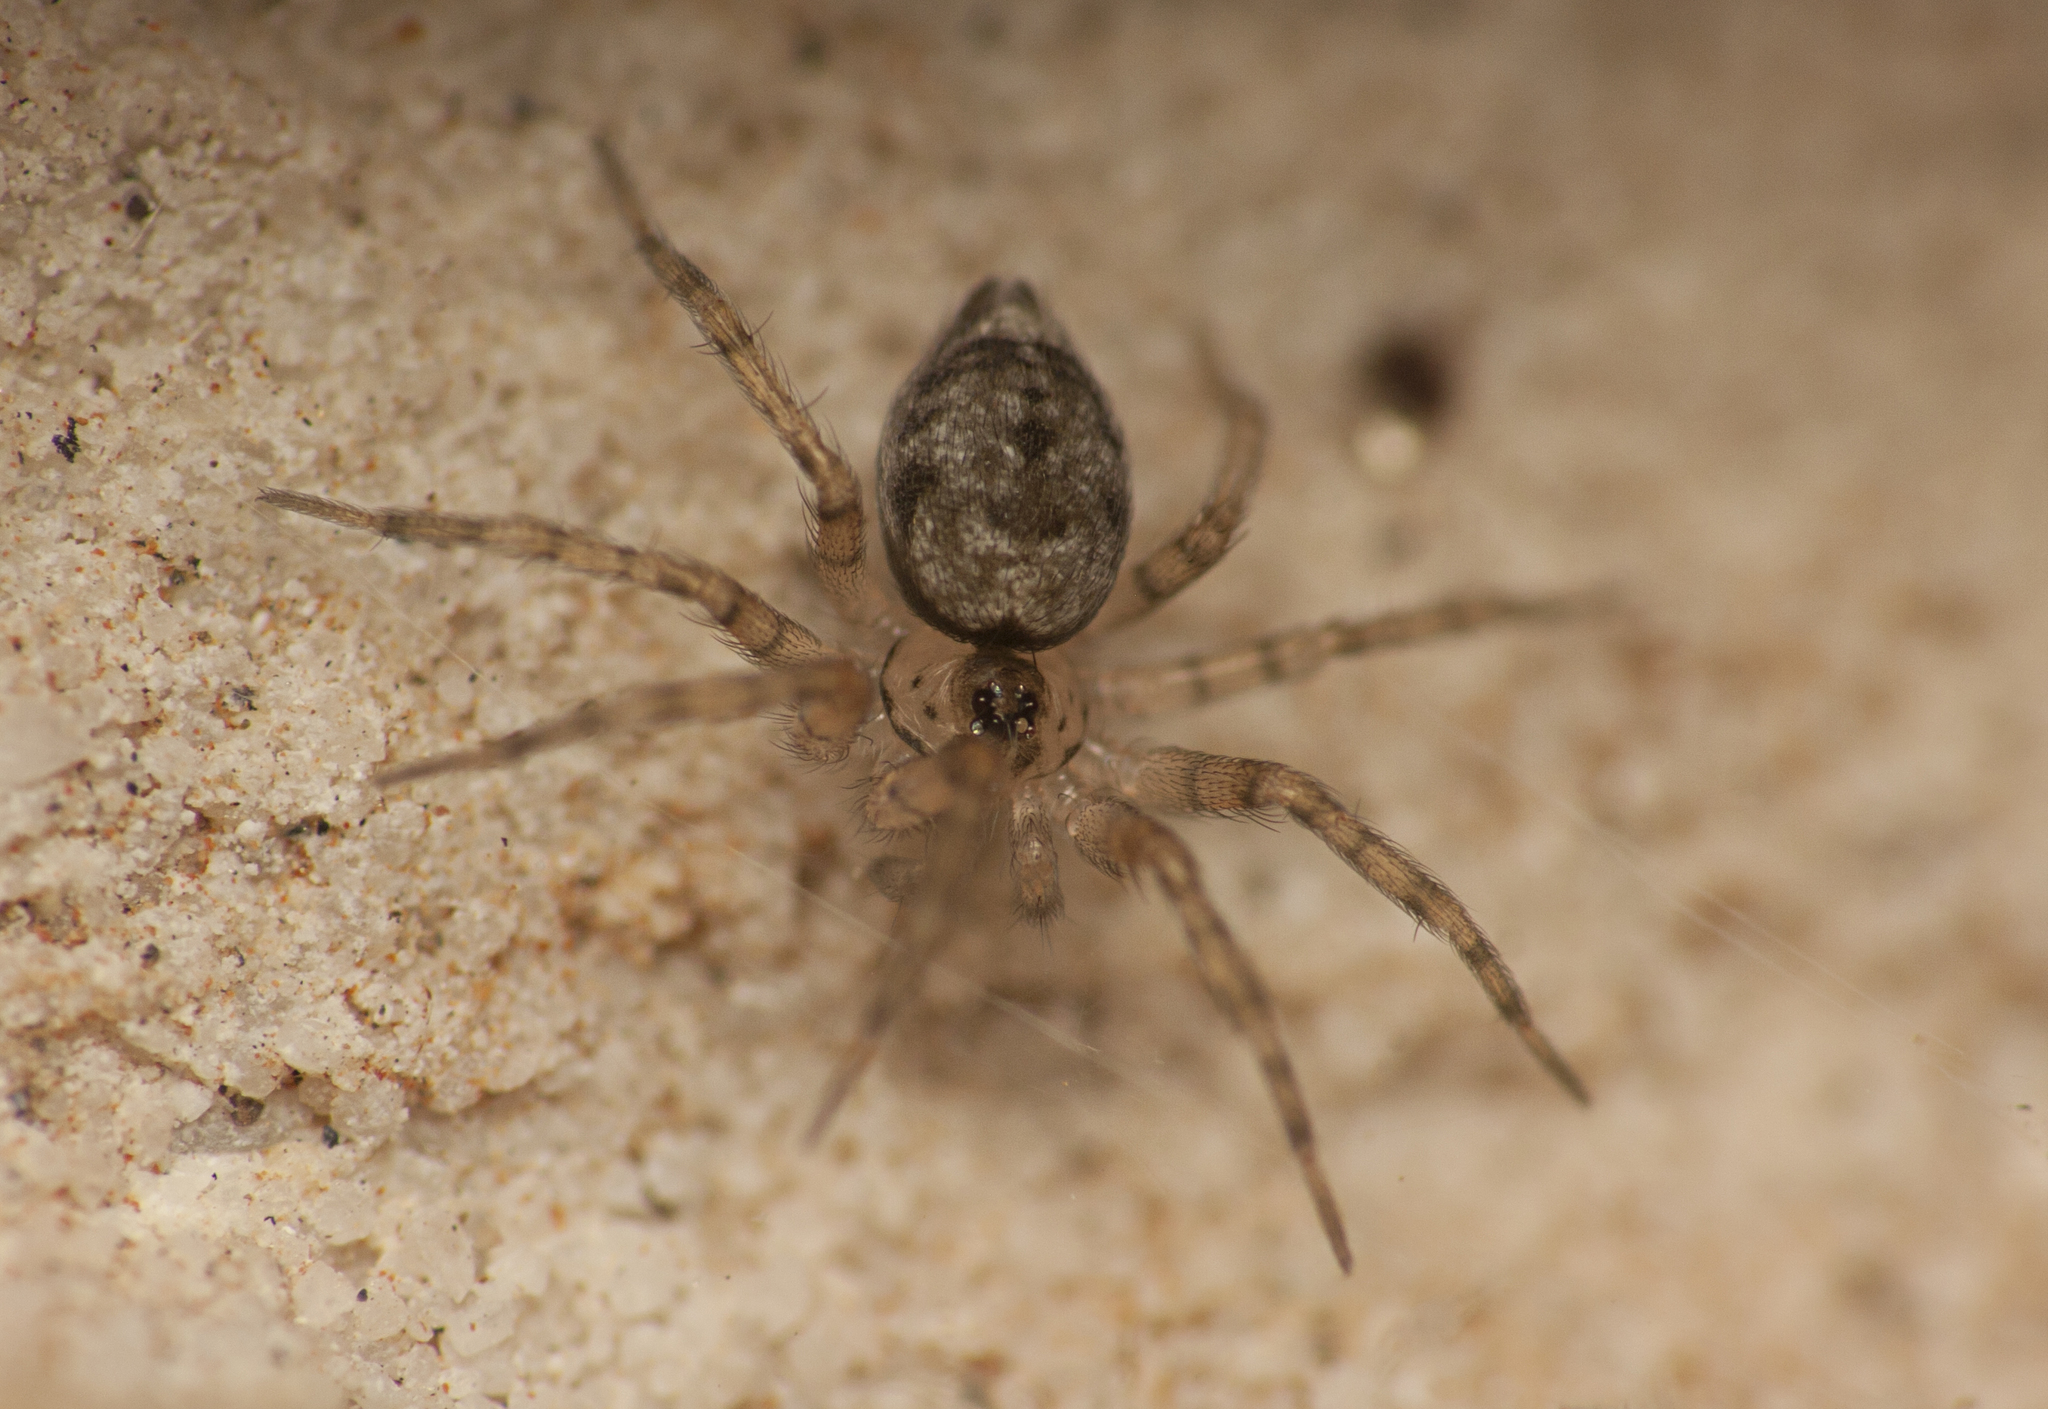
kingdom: Animalia
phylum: Arthropoda
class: Arachnida
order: Araneae
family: Oecobiidae
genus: Oecobius
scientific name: Oecobius navus
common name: Flatmesh weaver
